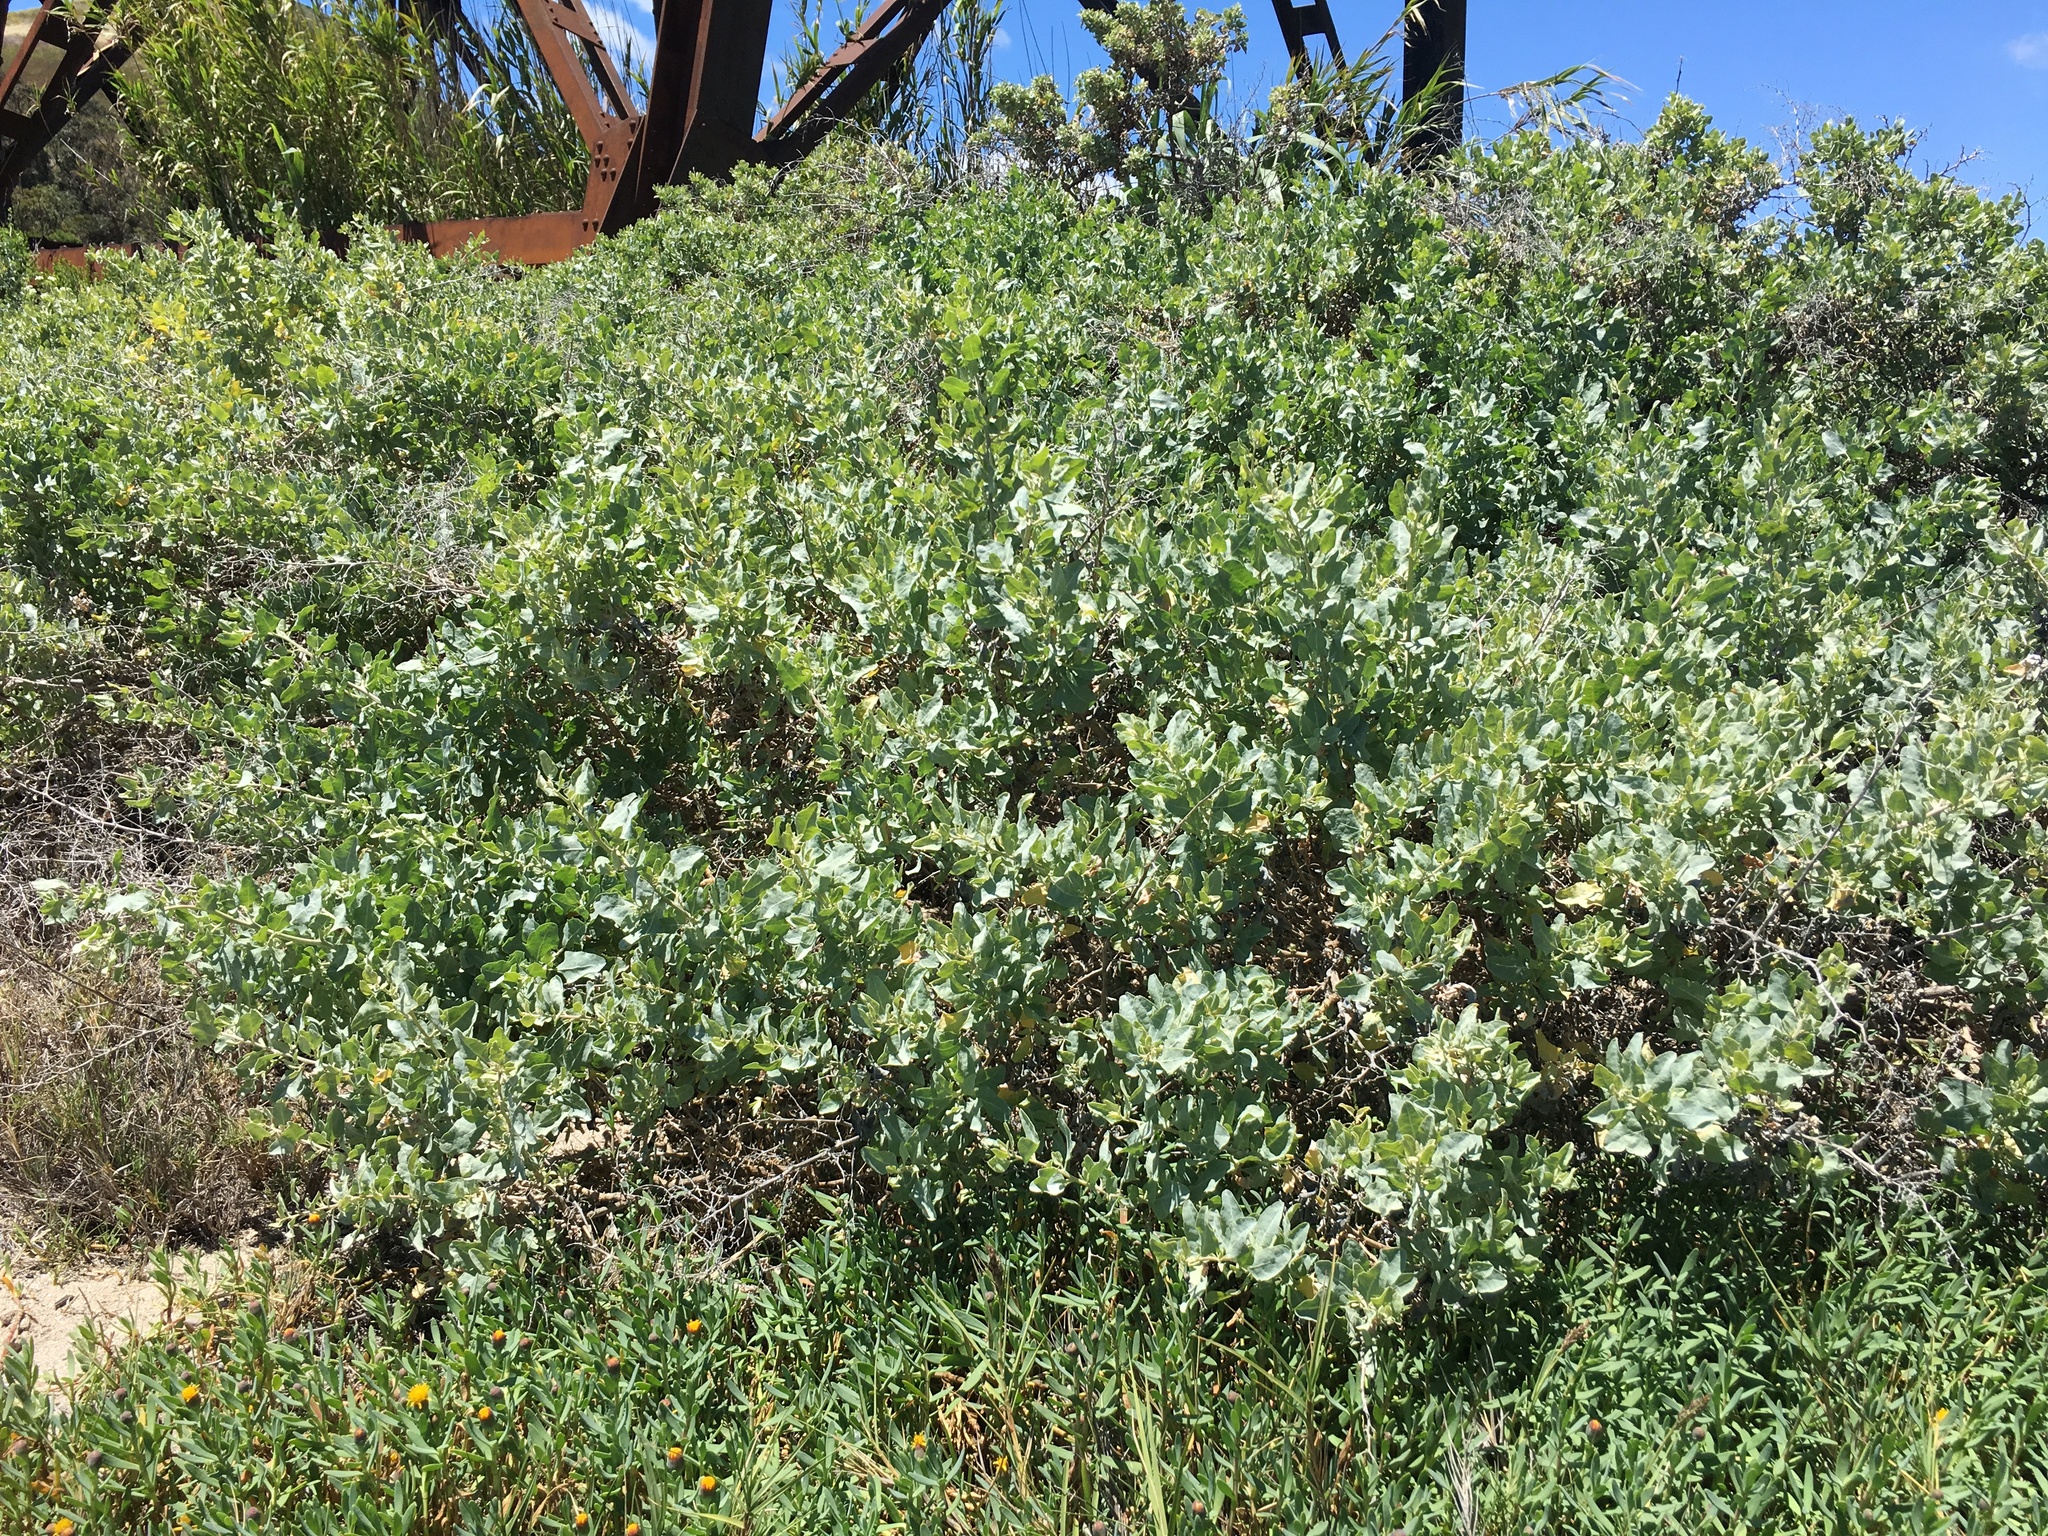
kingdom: Plantae
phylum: Tracheophyta
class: Magnoliopsida
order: Caryophyllales
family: Amaranthaceae
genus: Atriplex
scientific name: Atriplex lentiformis
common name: Big saltbush
